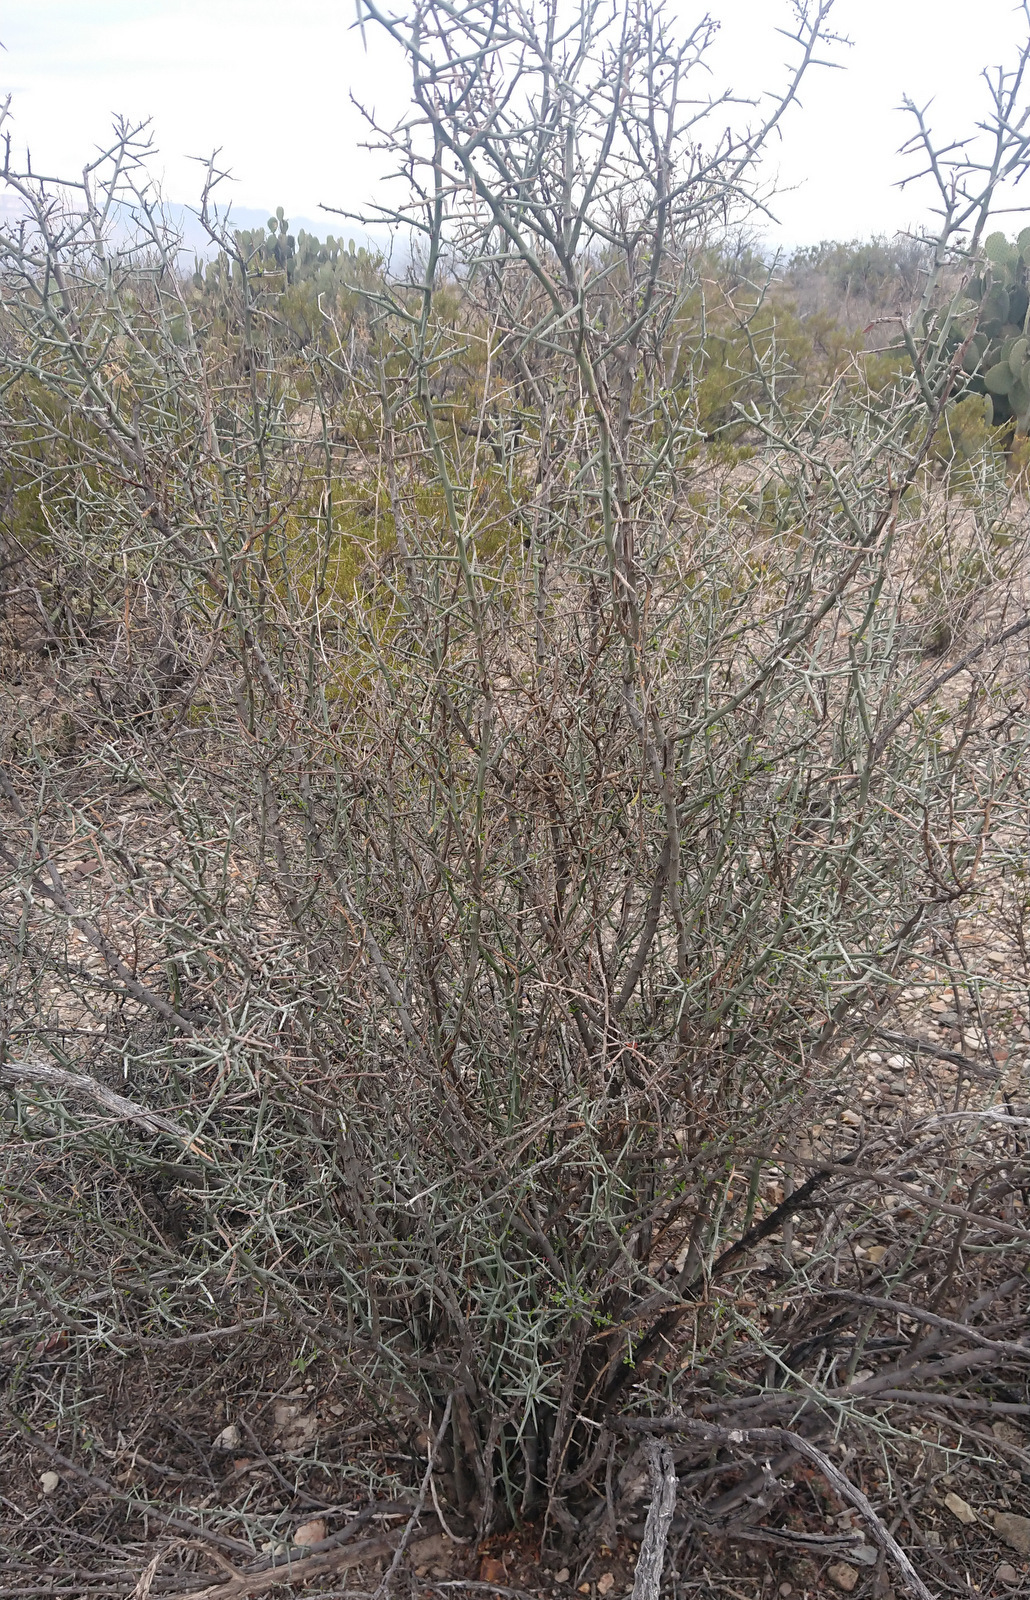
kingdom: Plantae
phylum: Tracheophyta
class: Magnoliopsida
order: Rosales
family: Rhamnaceae
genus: Sarcomphalus
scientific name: Sarcomphalus obtusifolius
